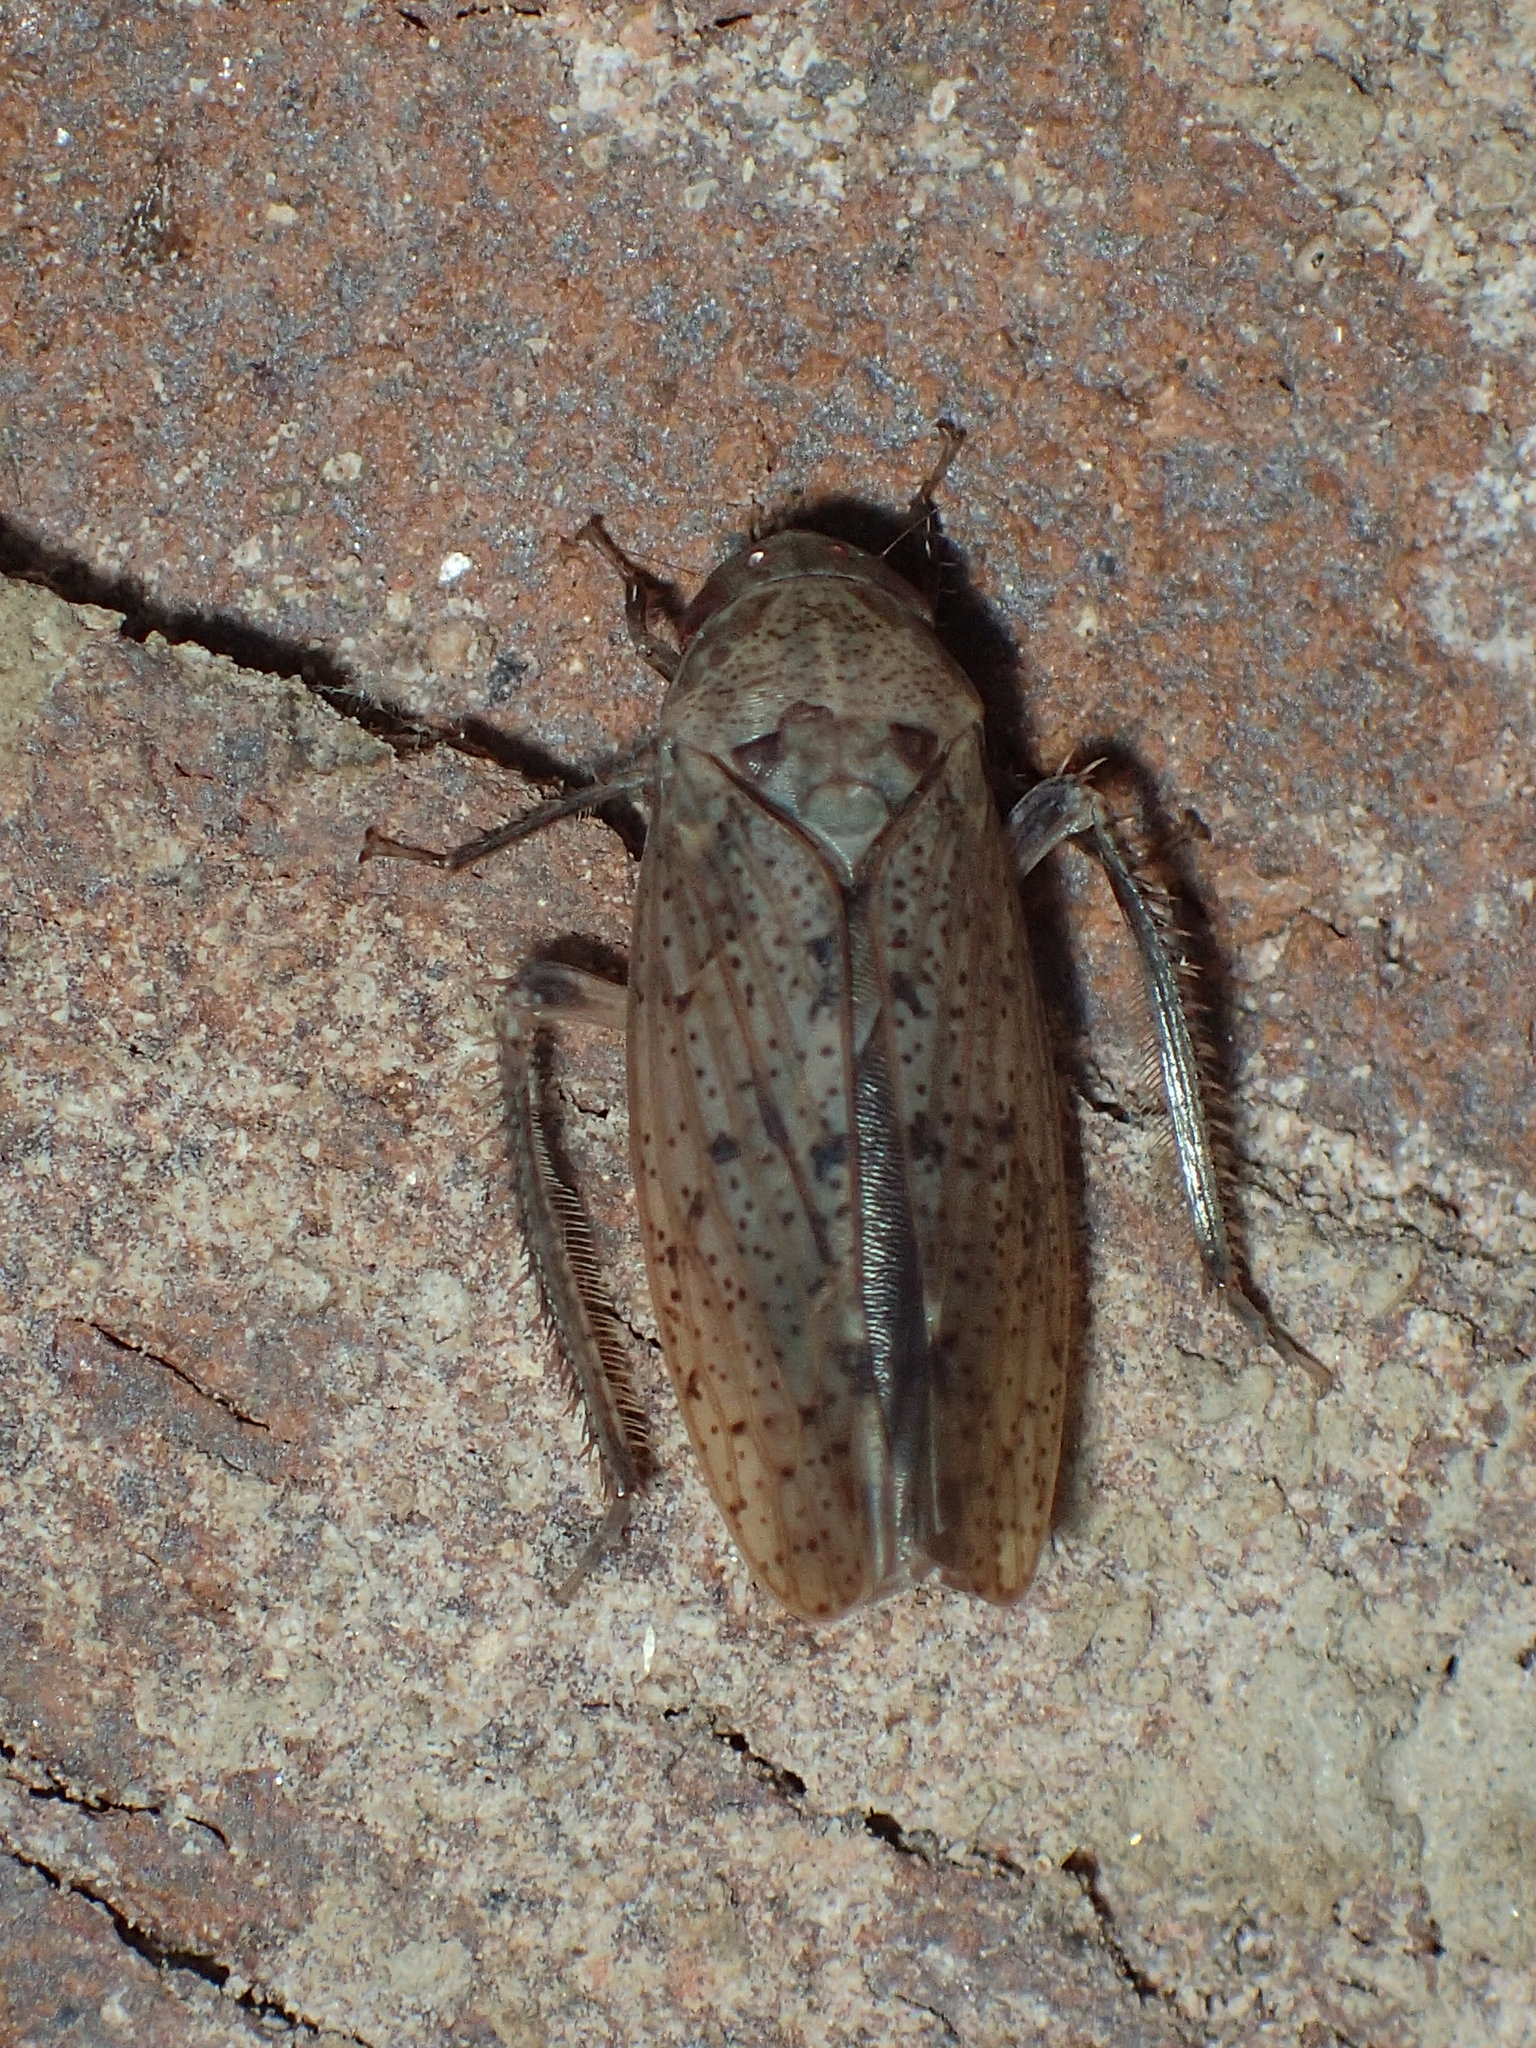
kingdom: Animalia
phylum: Arthropoda
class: Insecta
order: Hemiptera
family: Cicadellidae
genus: Ponana
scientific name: Ponana puncticollis
